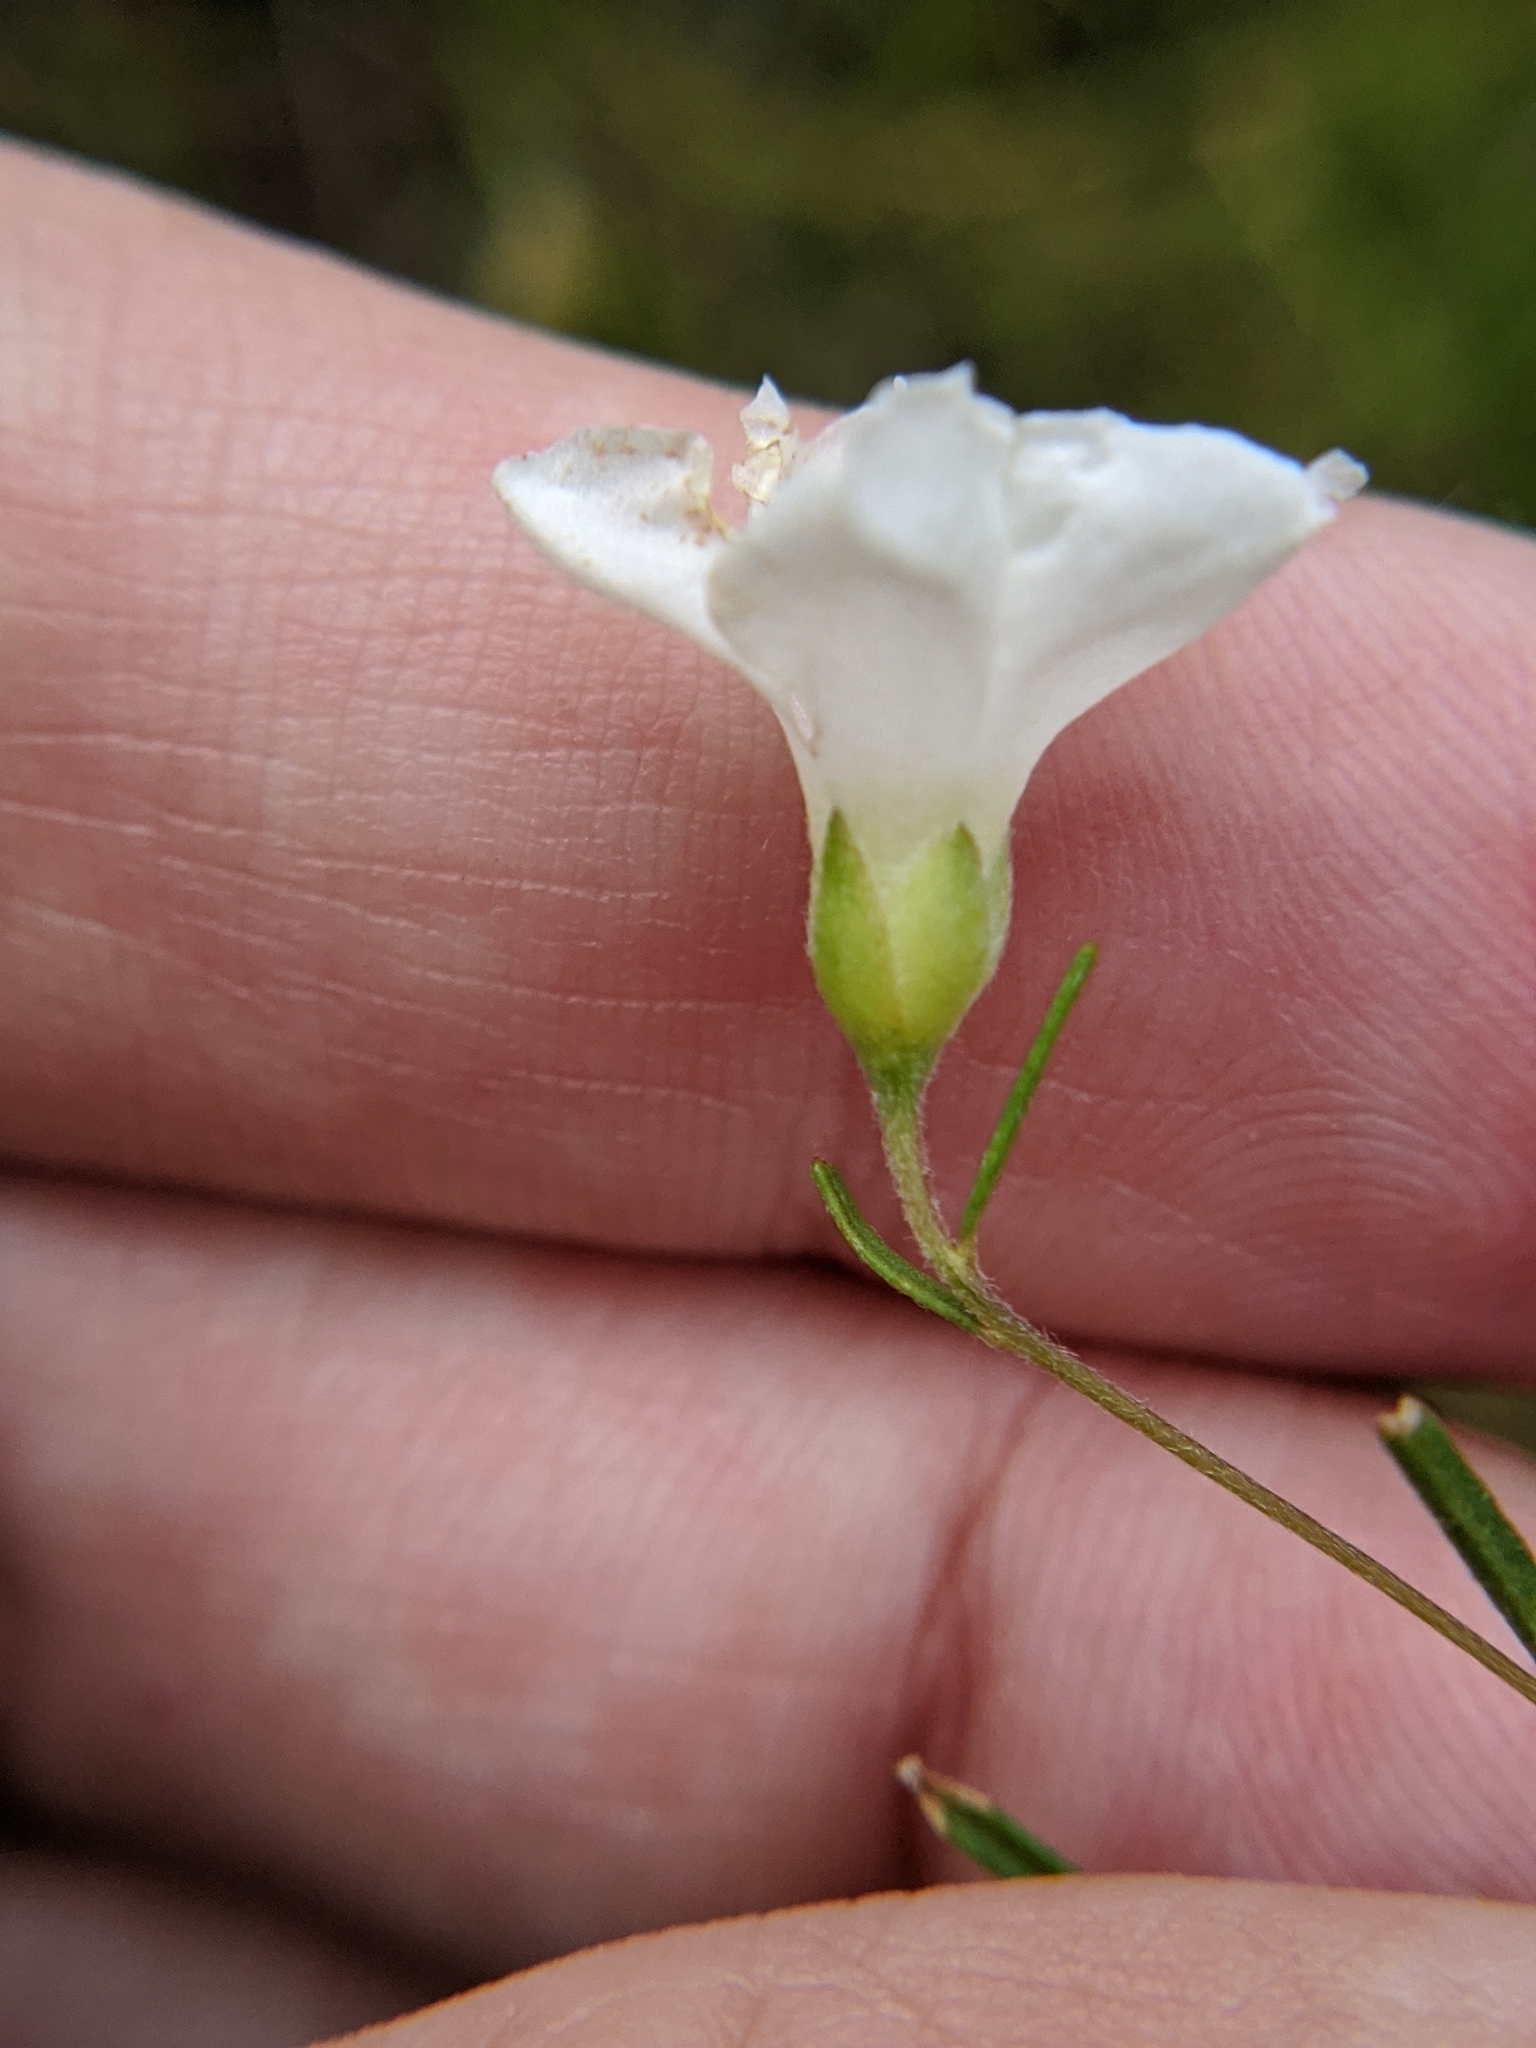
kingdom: Plantae
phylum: Tracheophyta
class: Magnoliopsida
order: Solanales
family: Convolvulaceae
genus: Stylisma
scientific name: Stylisma pickeringii
